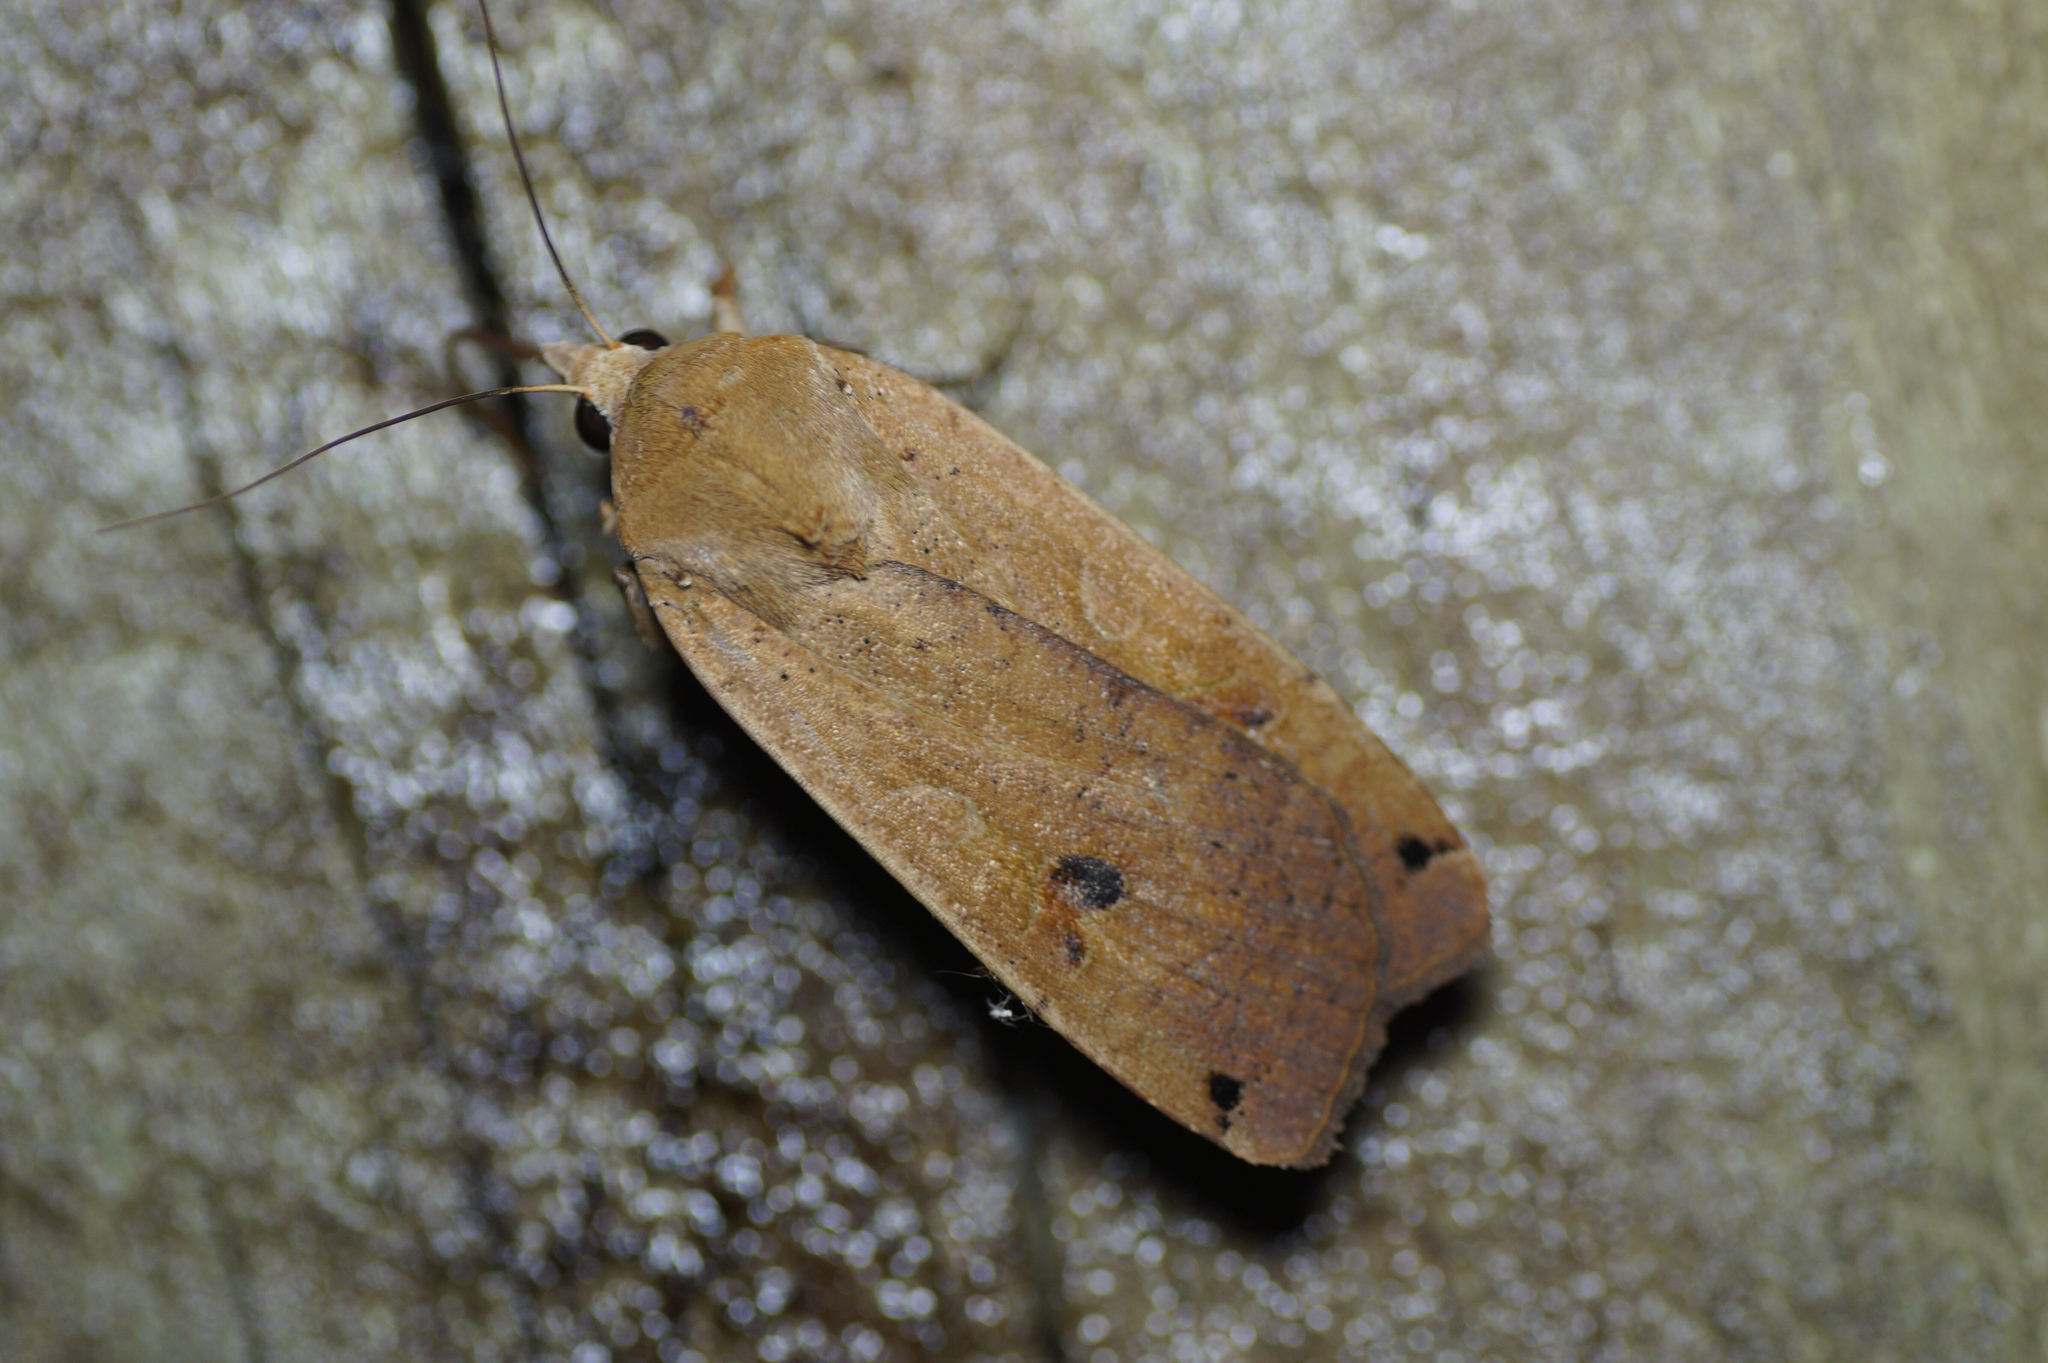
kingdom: Animalia
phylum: Arthropoda
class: Insecta
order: Lepidoptera
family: Noctuidae
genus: Noctua
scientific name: Noctua pronuba
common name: Large yellow underwing
